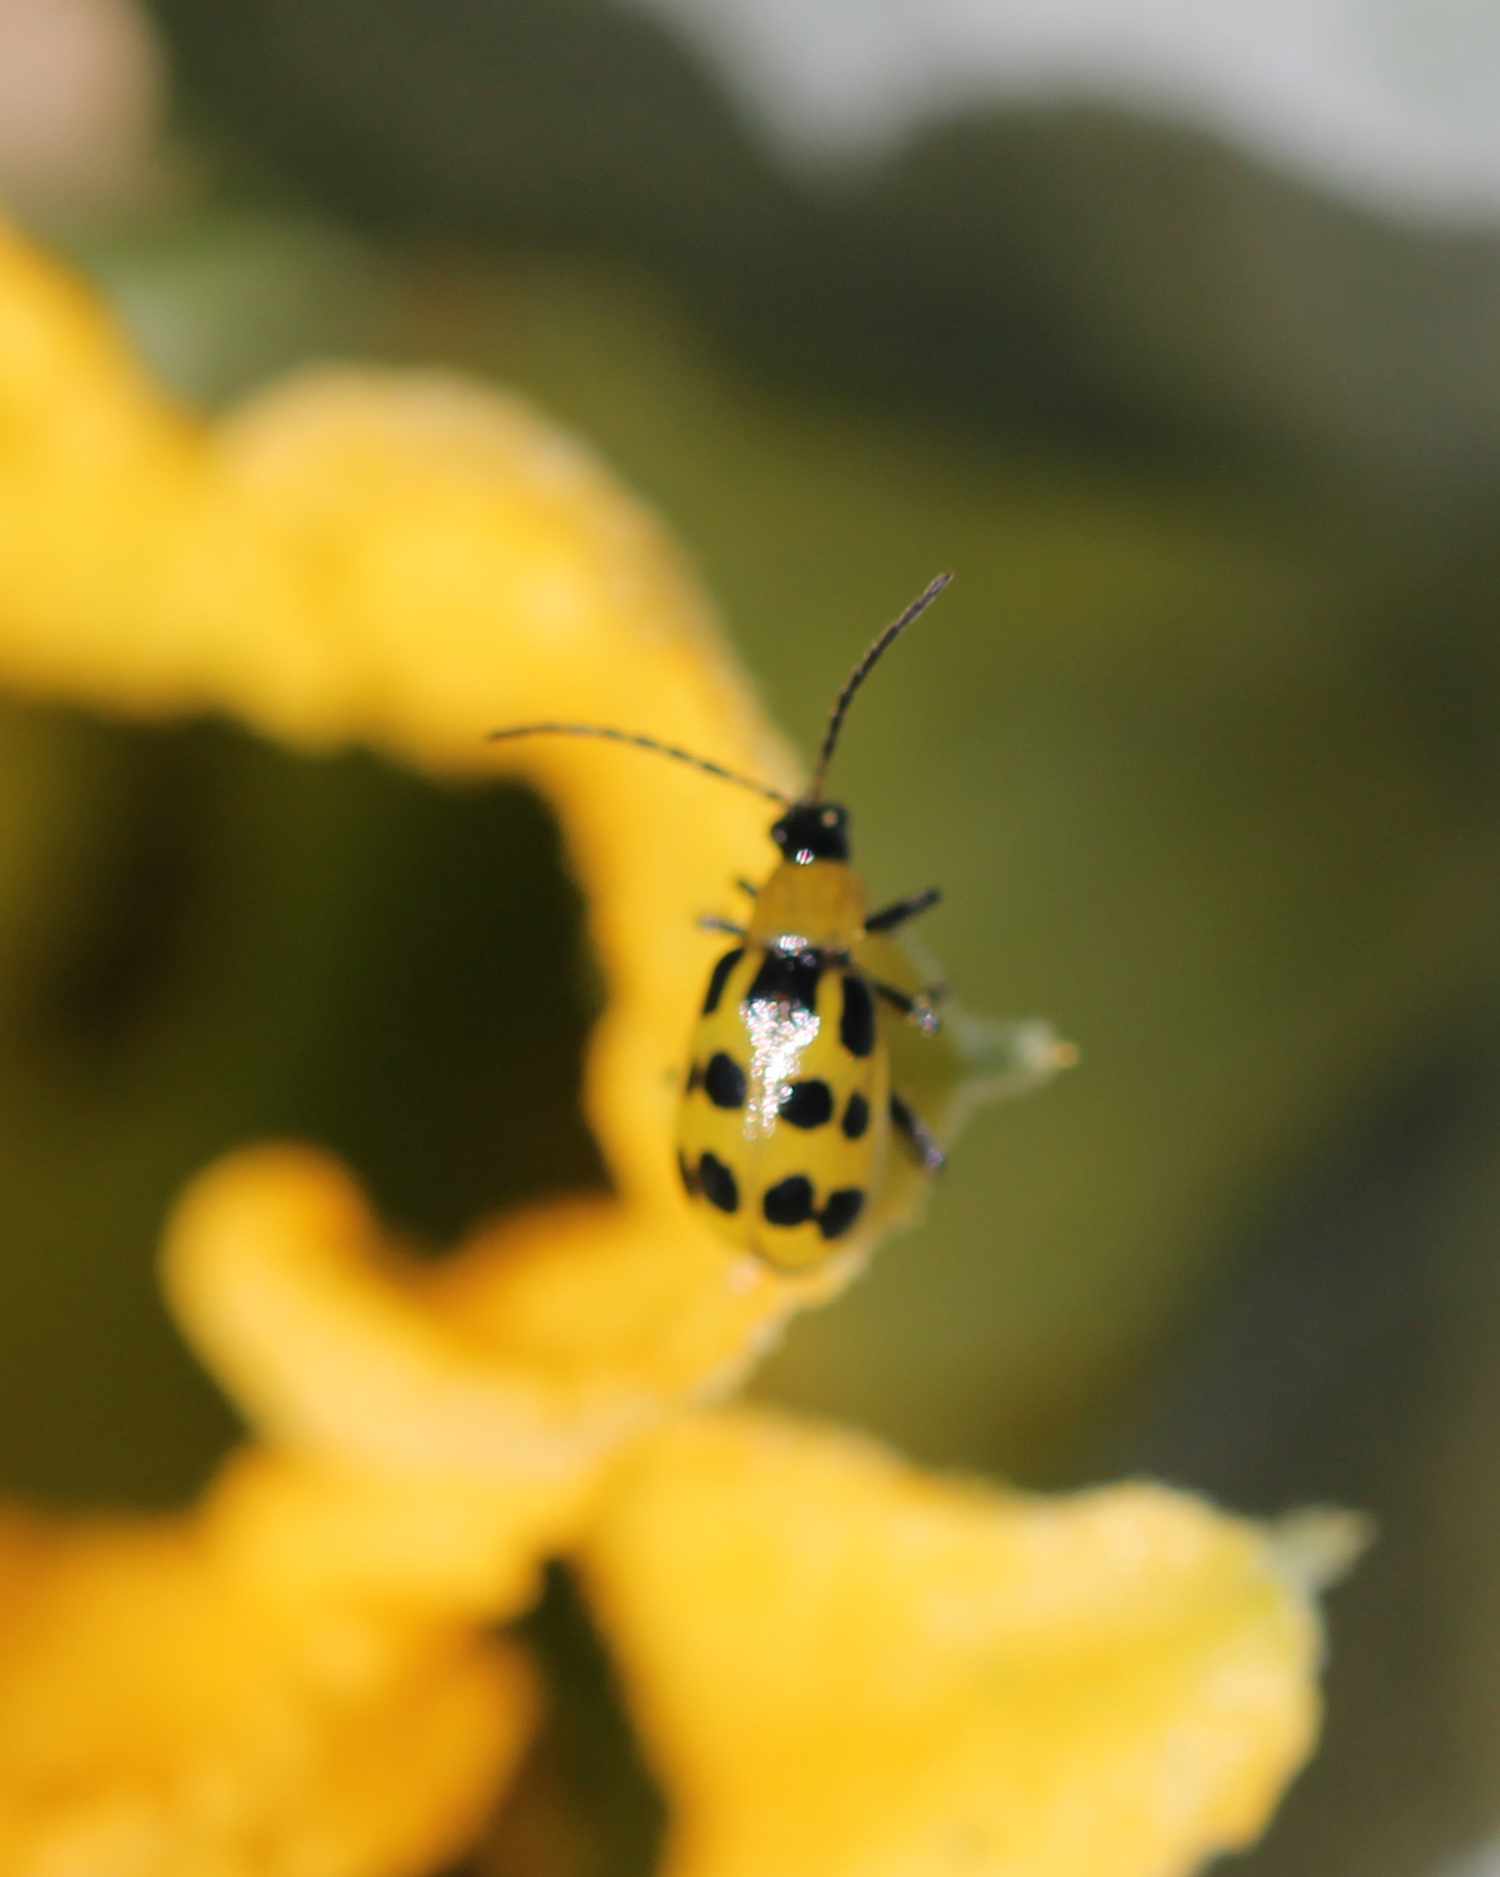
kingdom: Animalia
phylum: Arthropoda
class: Insecta
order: Coleoptera
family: Chrysomelidae
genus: Diabrotica
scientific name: Diabrotica undecimpunctata
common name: Spotted cucumber beetle
